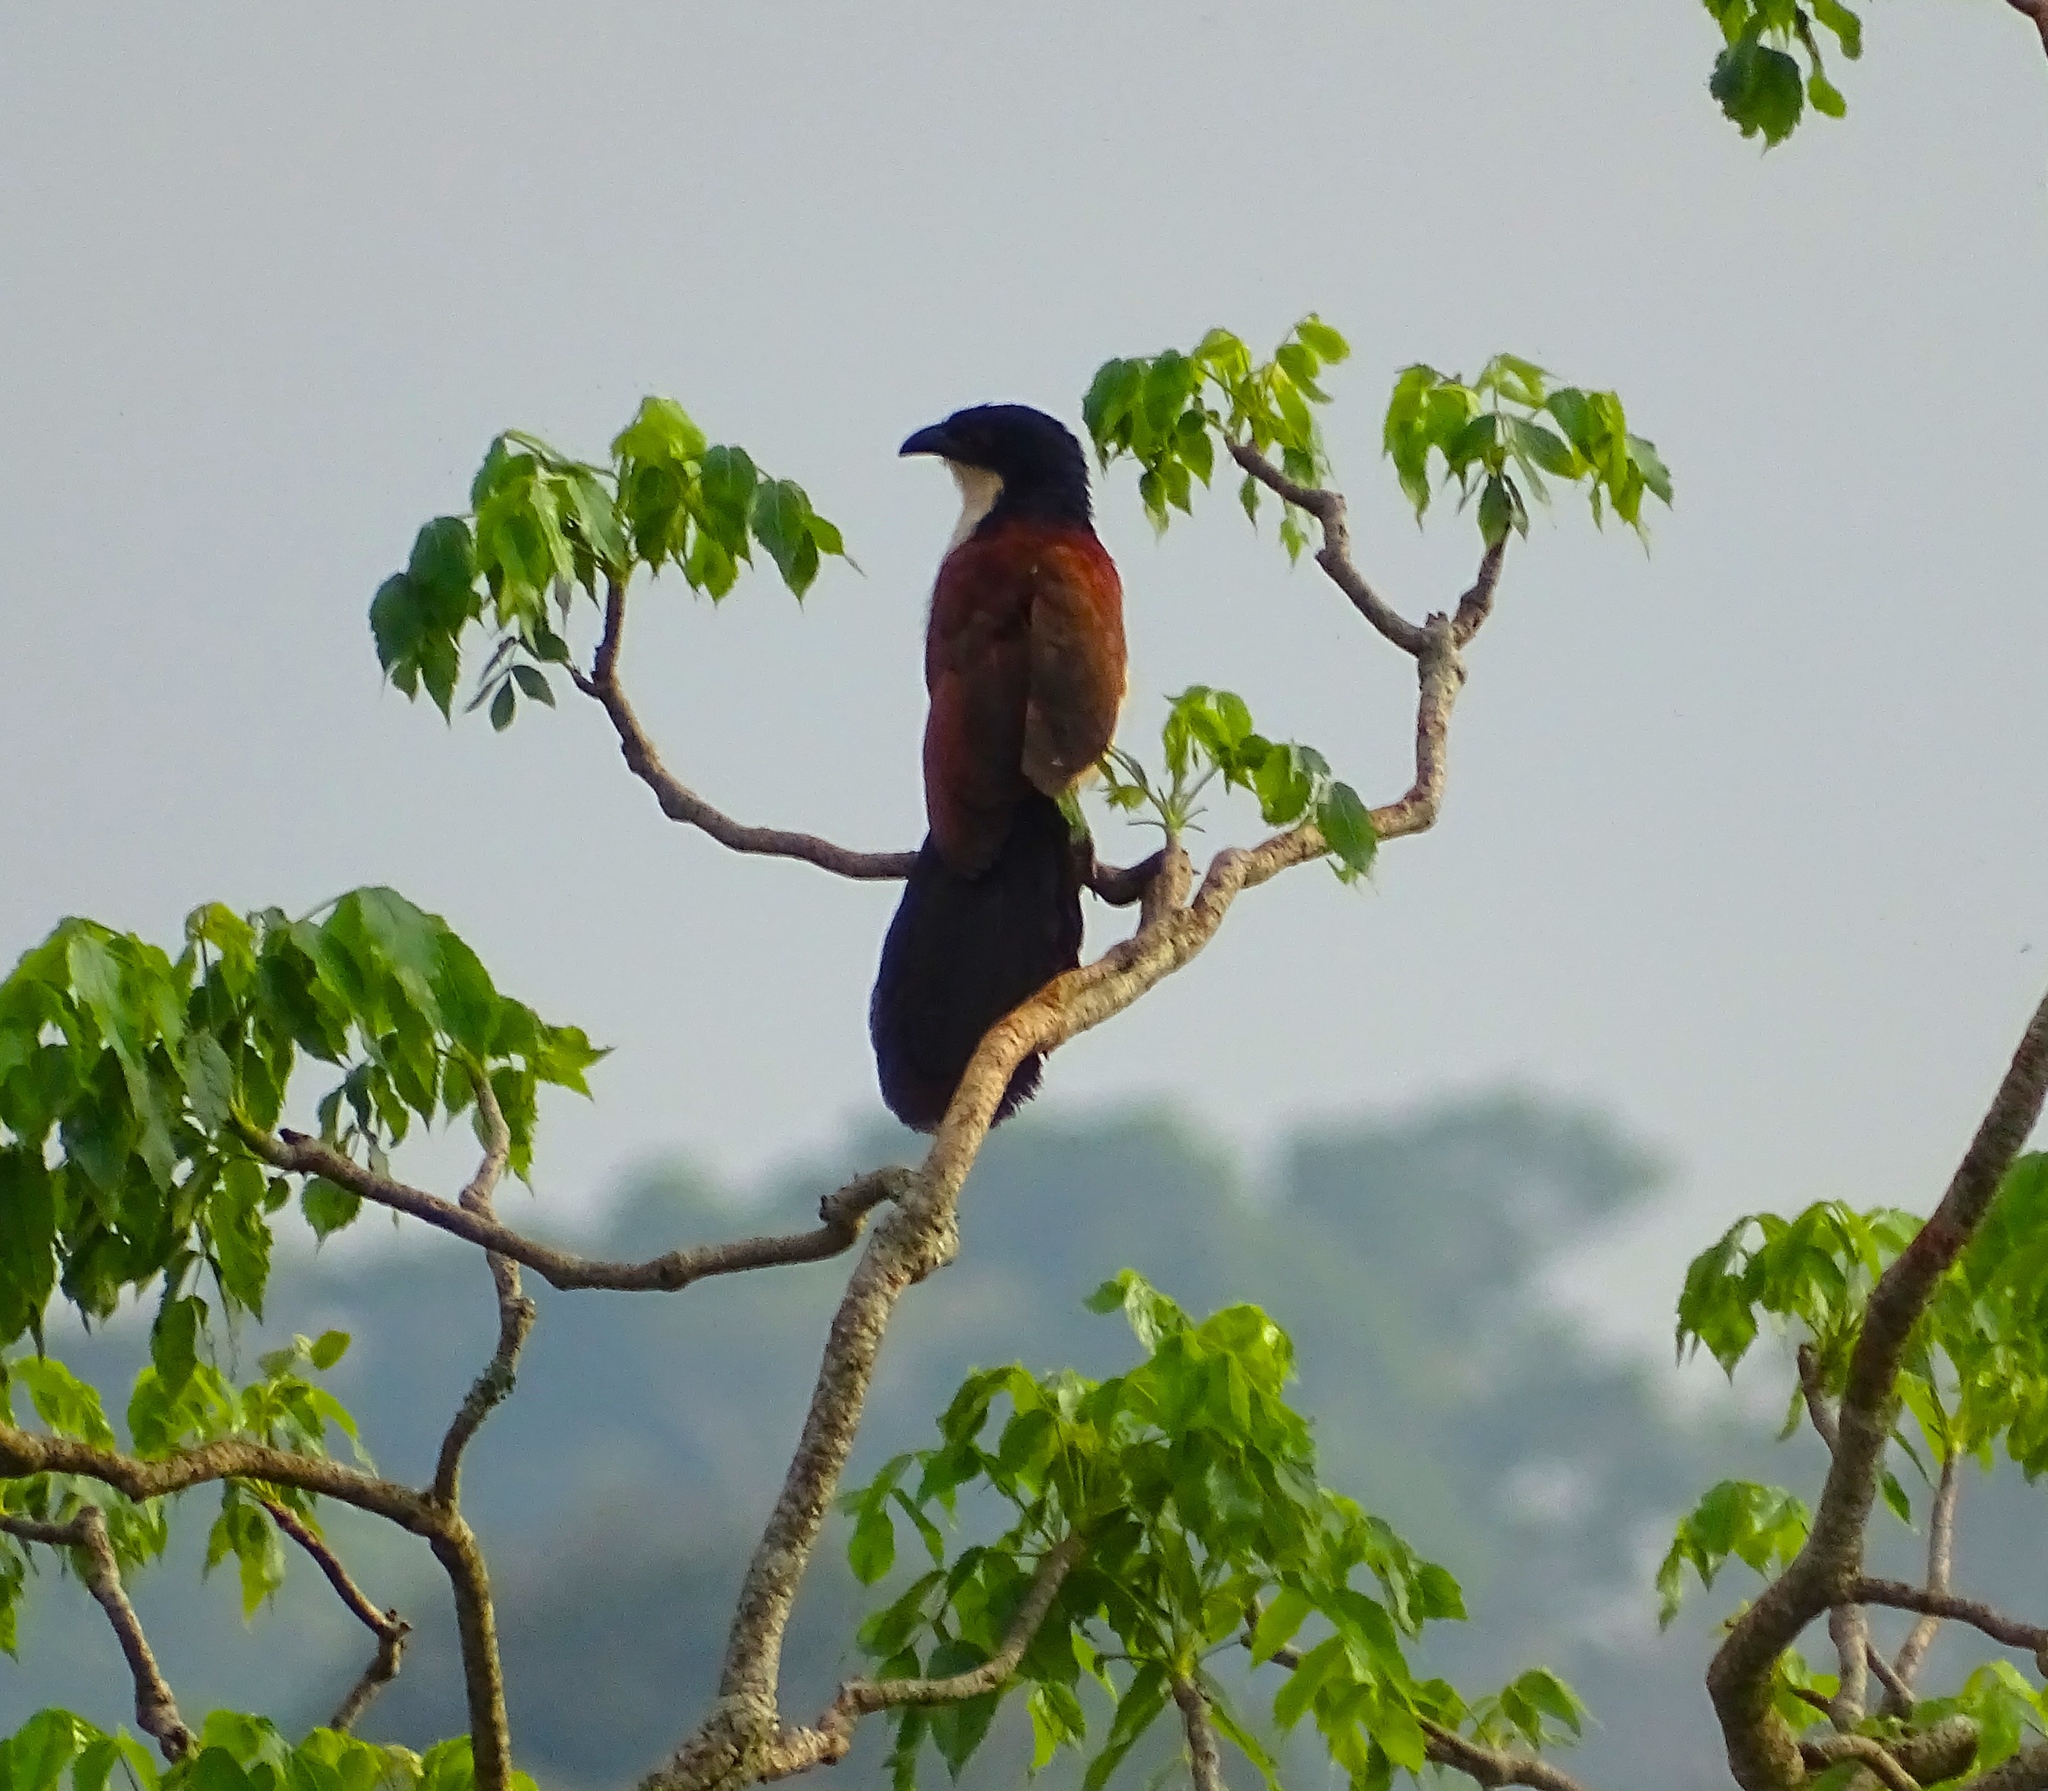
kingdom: Animalia
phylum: Chordata
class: Aves
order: Cuculiformes
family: Cuculidae
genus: Centropus
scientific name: Centropus monachus
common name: Blue-headed coucal
